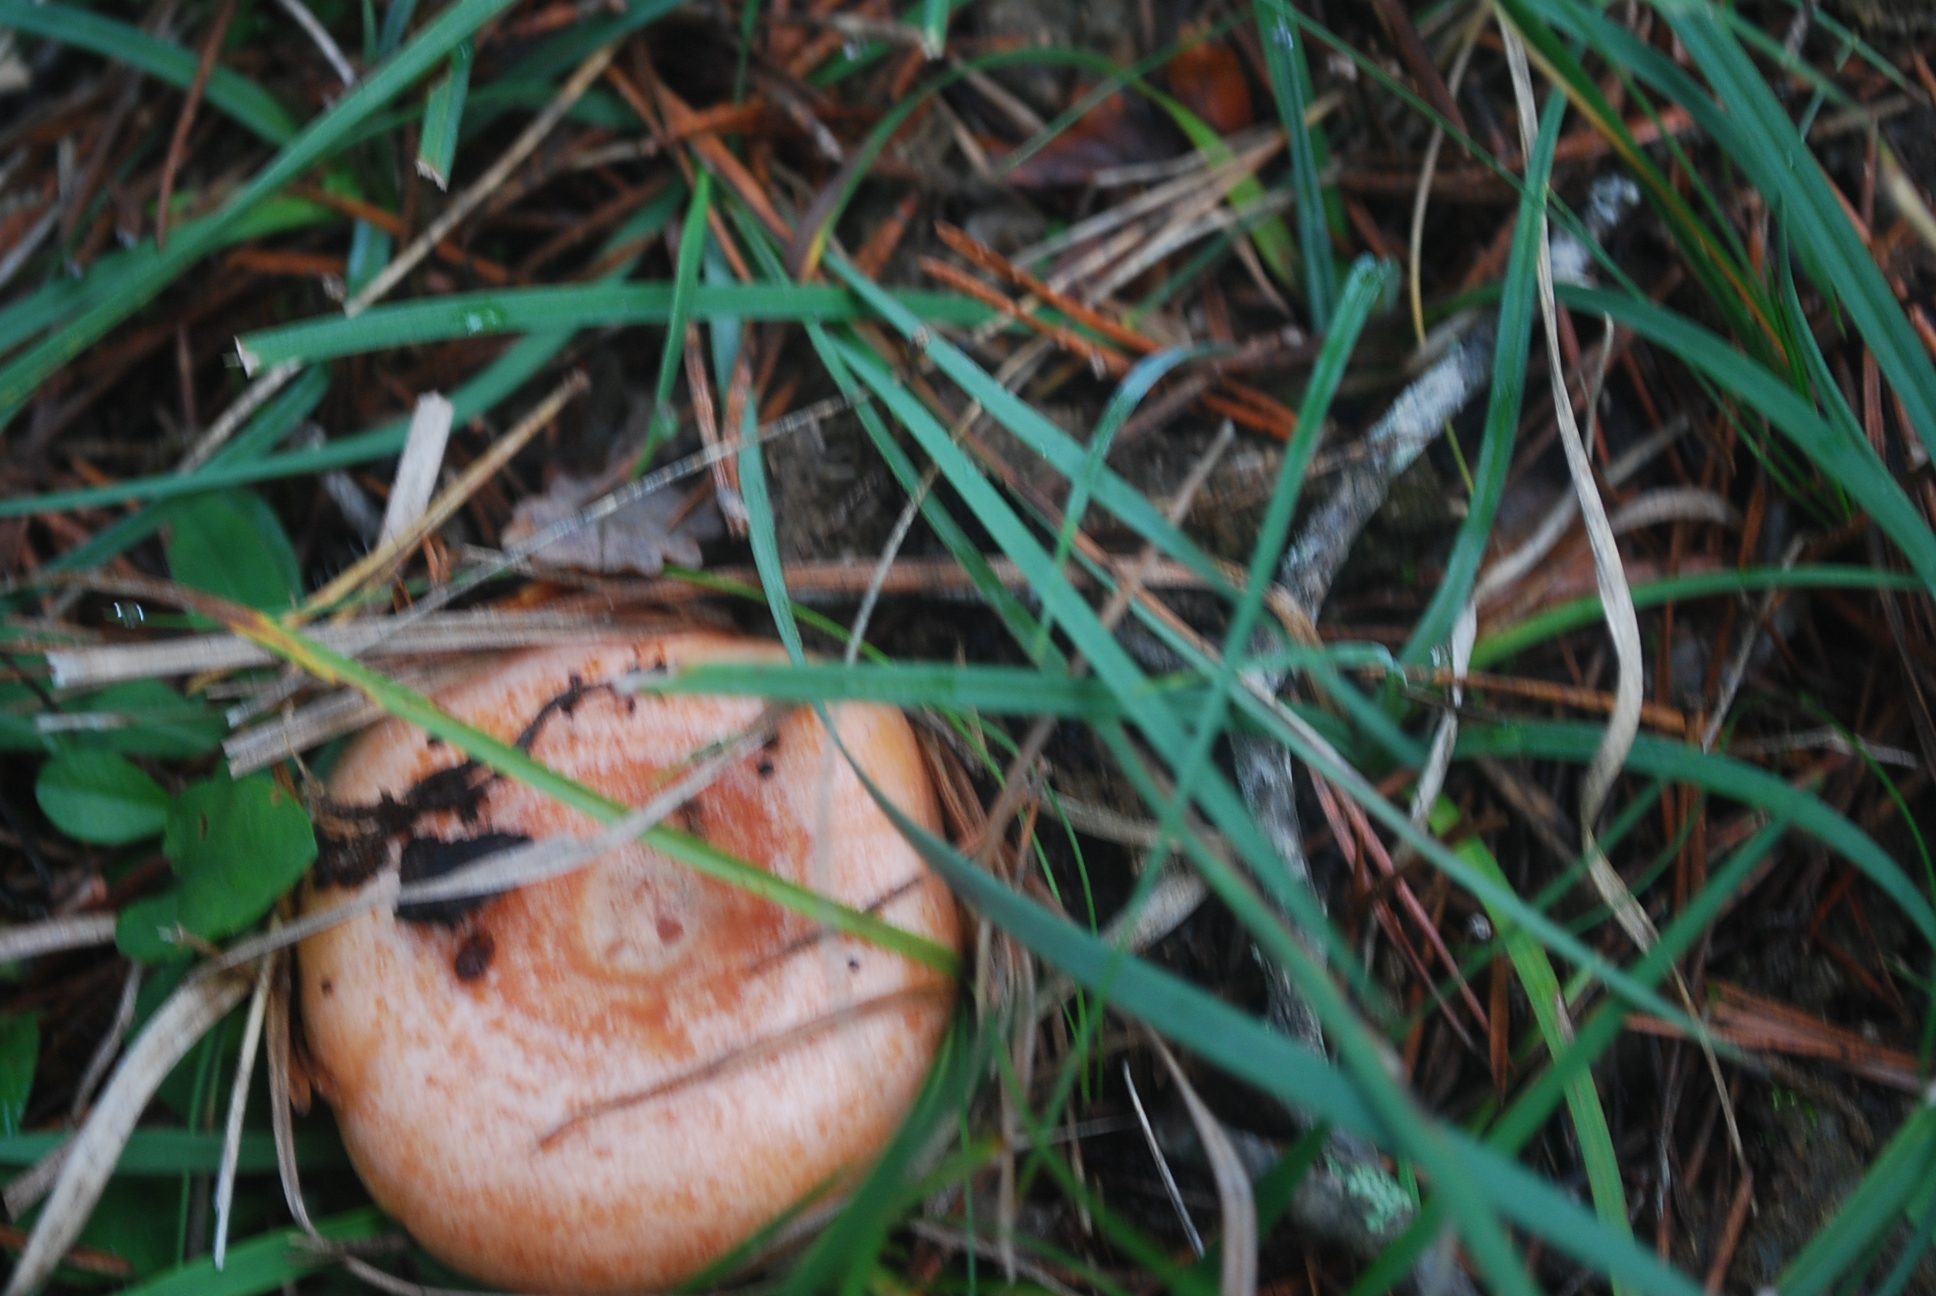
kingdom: Fungi
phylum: Basidiomycota
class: Agaricomycetes
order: Russulales
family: Russulaceae
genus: Lactarius
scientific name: Lactarius deliciosus
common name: Saffron milk-cap
